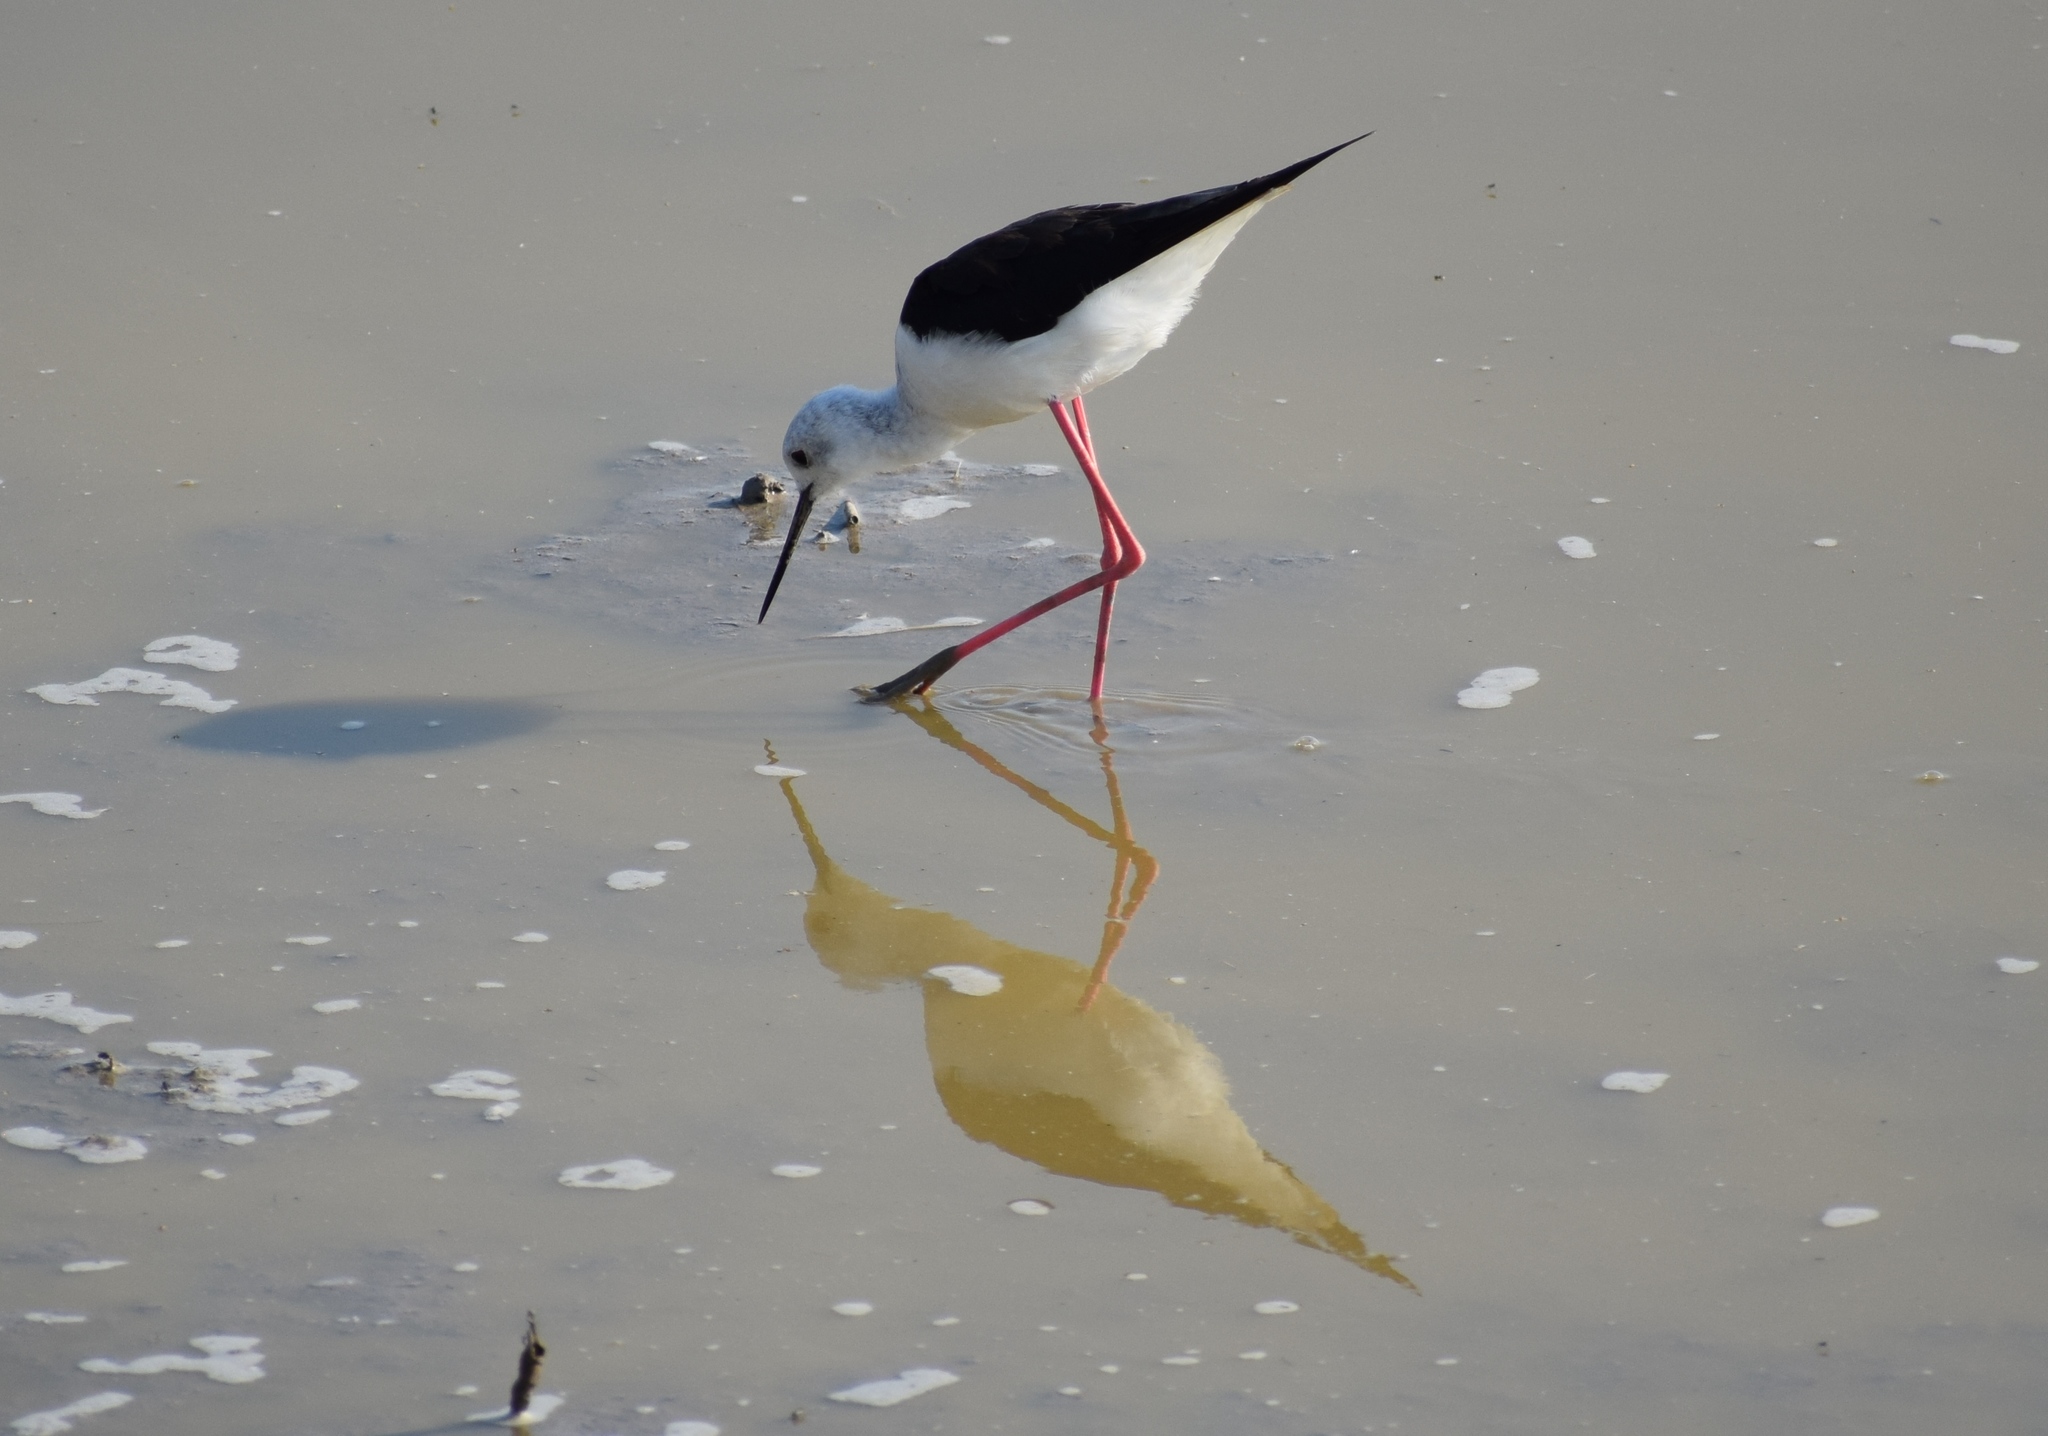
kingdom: Animalia
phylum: Chordata
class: Aves
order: Charadriiformes
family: Recurvirostridae
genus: Himantopus
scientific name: Himantopus himantopus
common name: Black-winged stilt
